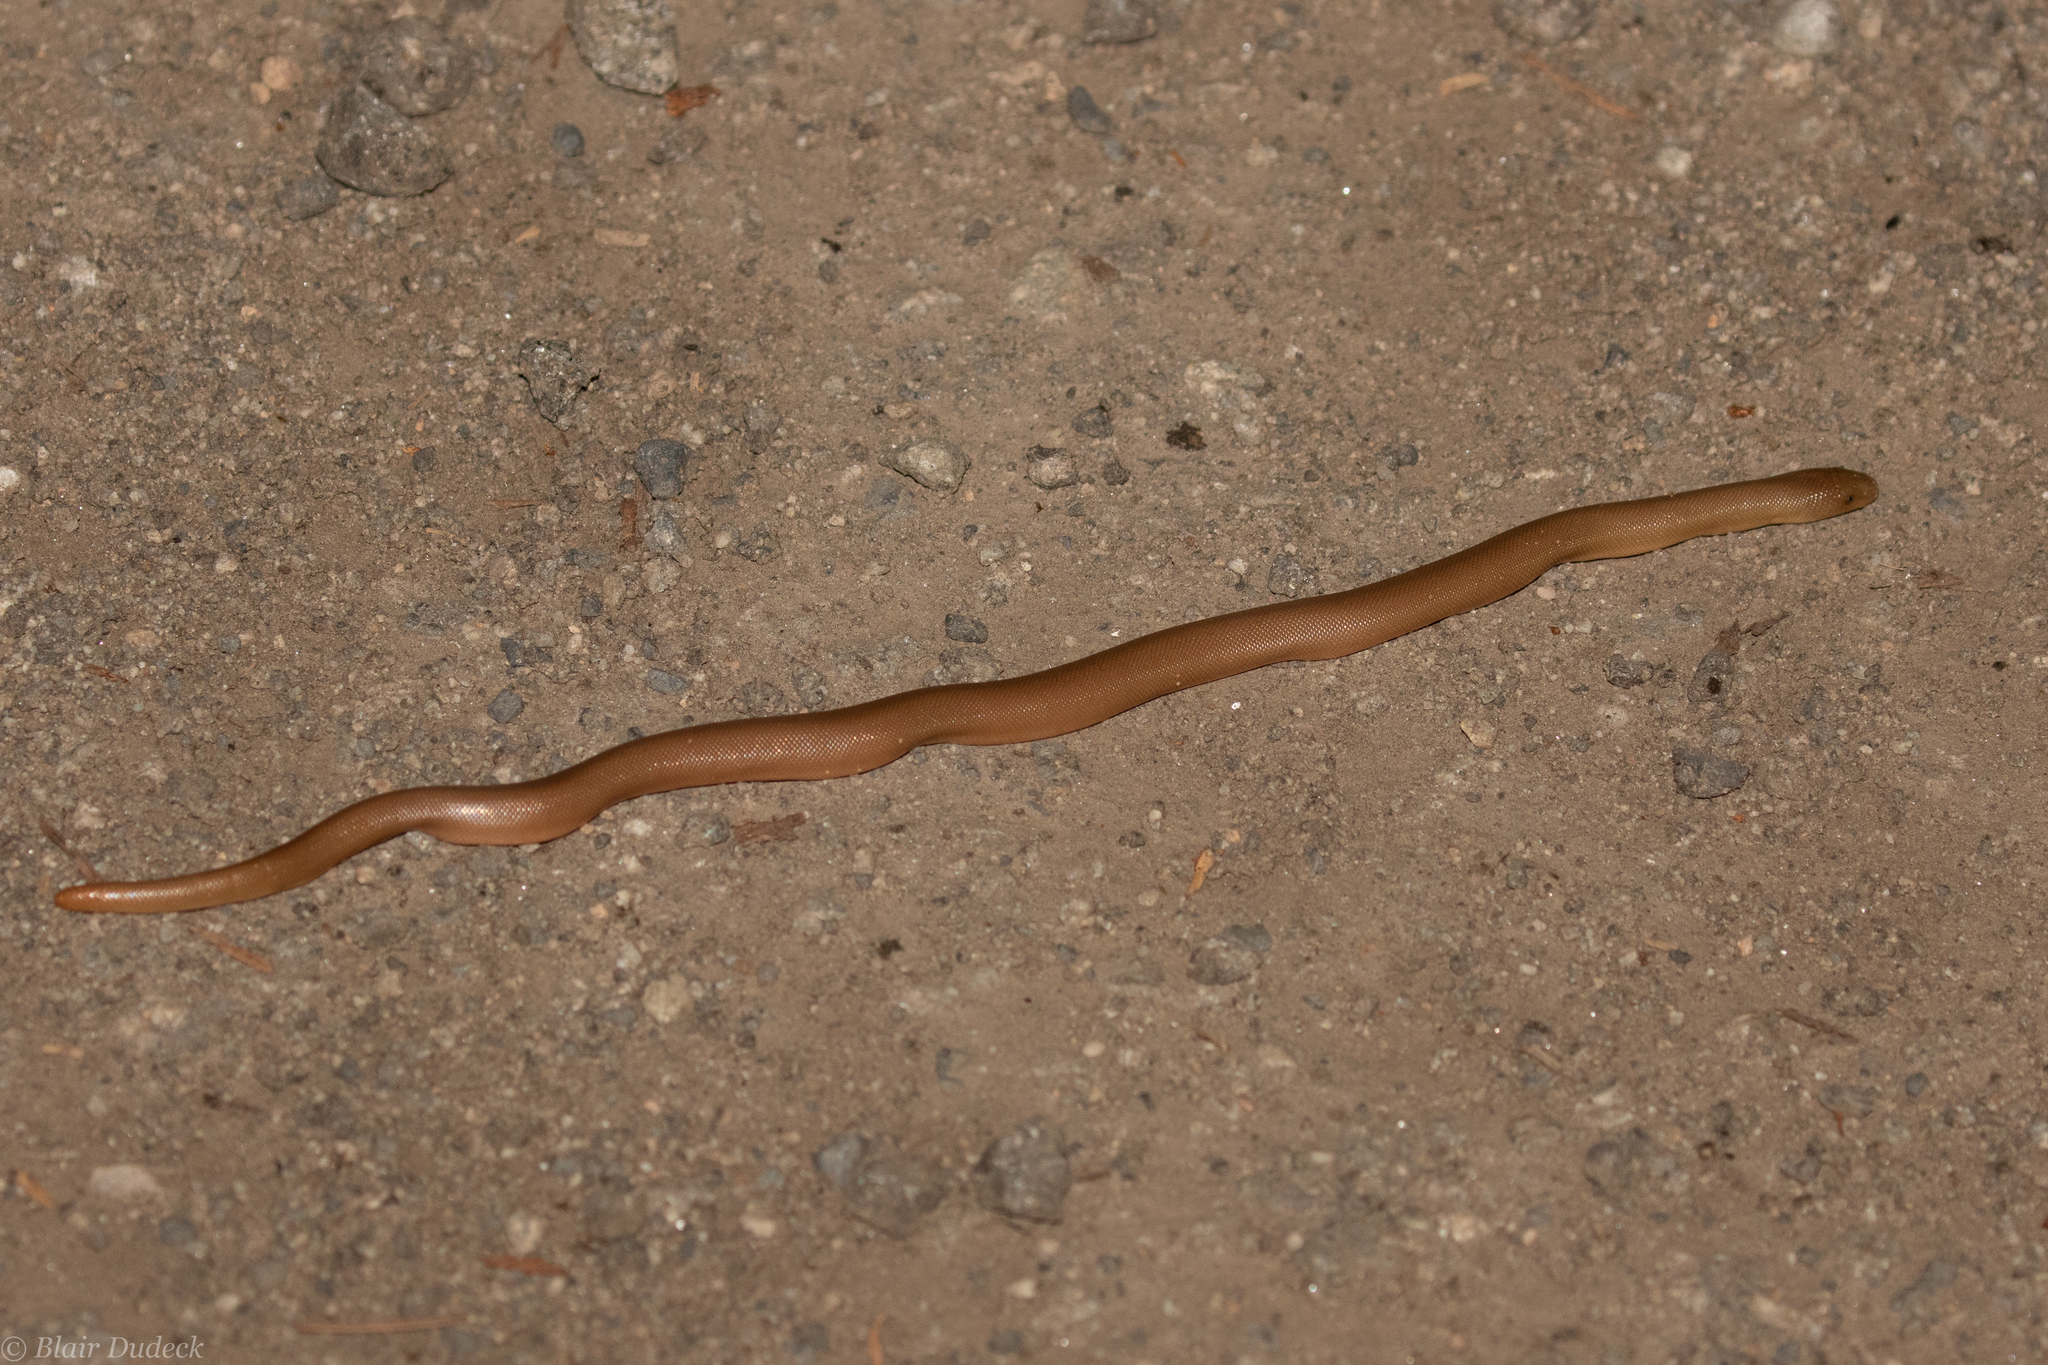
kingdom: Animalia
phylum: Chordata
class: Squamata
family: Boidae
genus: Charina
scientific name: Charina bottae
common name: Northern rubber boa
